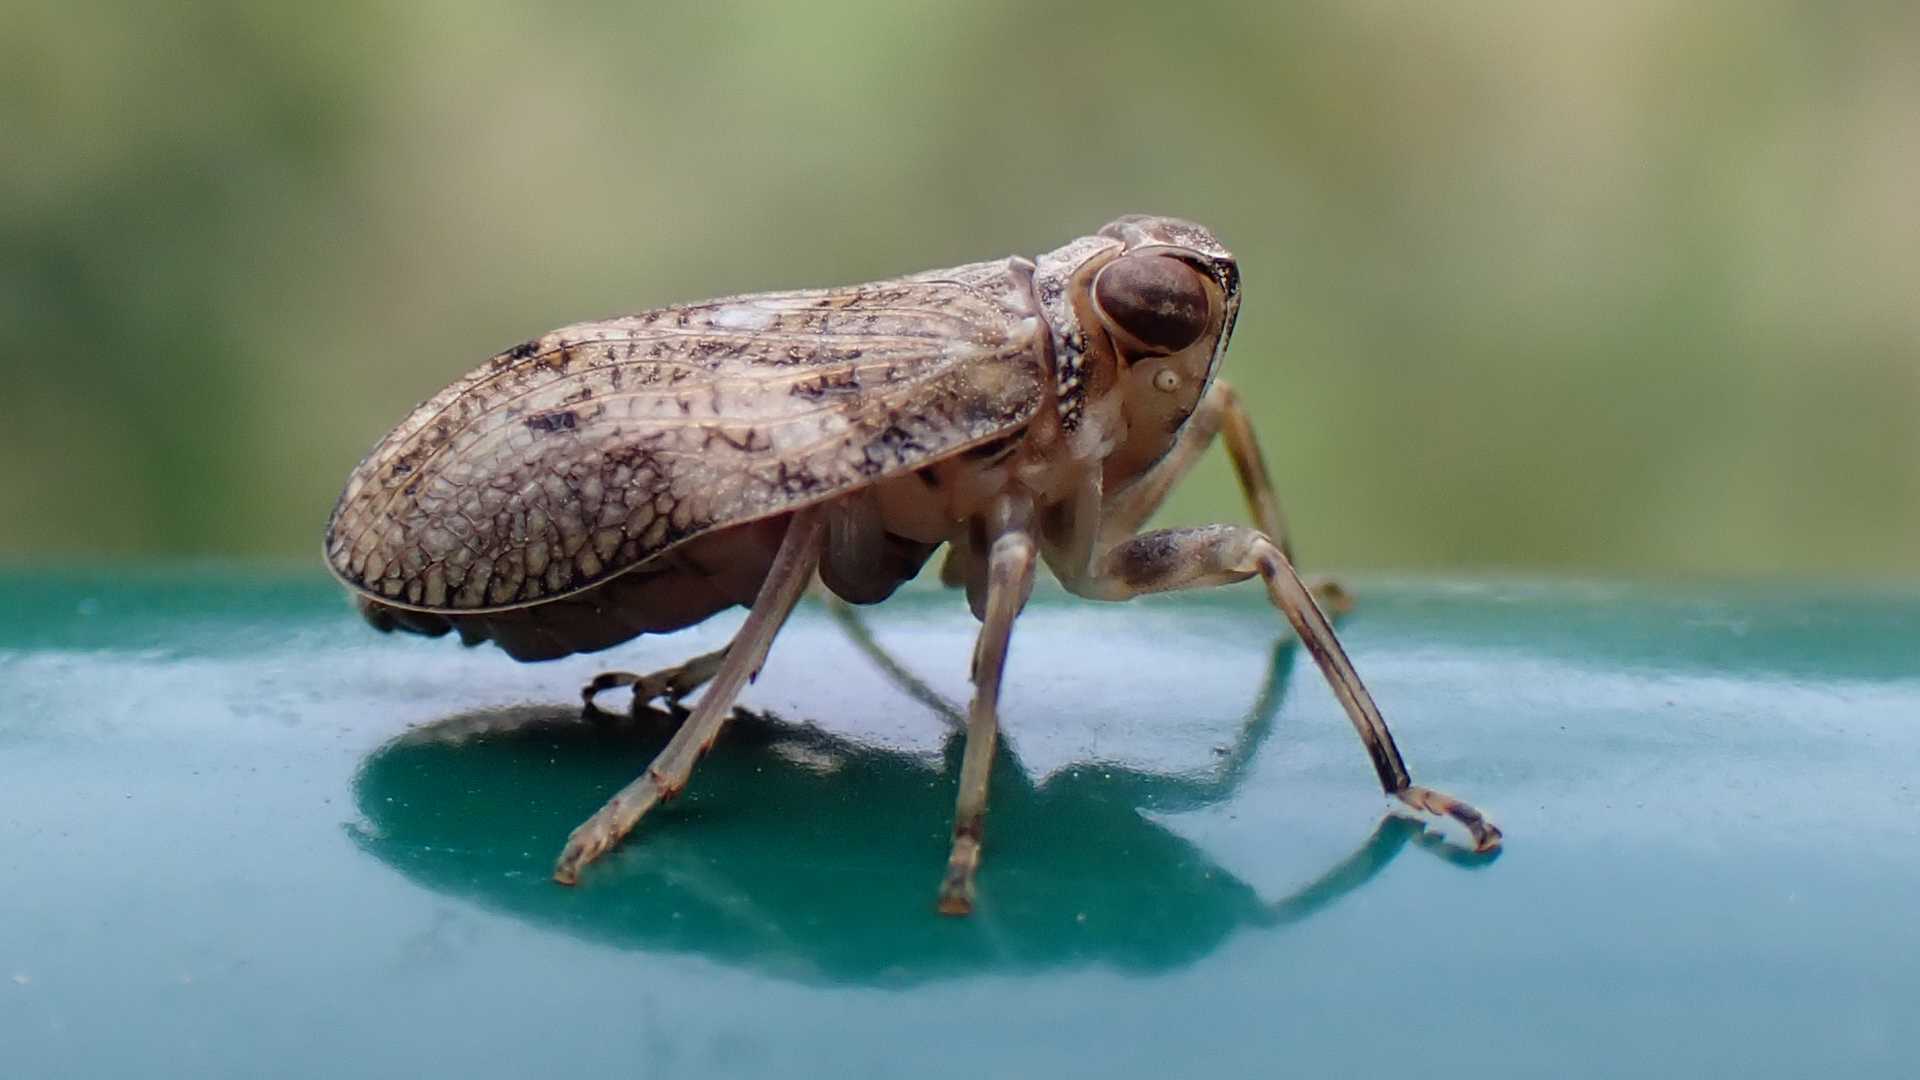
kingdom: Animalia
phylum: Arthropoda
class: Insecta
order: Hemiptera
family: Issidae
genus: Issus
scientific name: Issus coleoptratus
